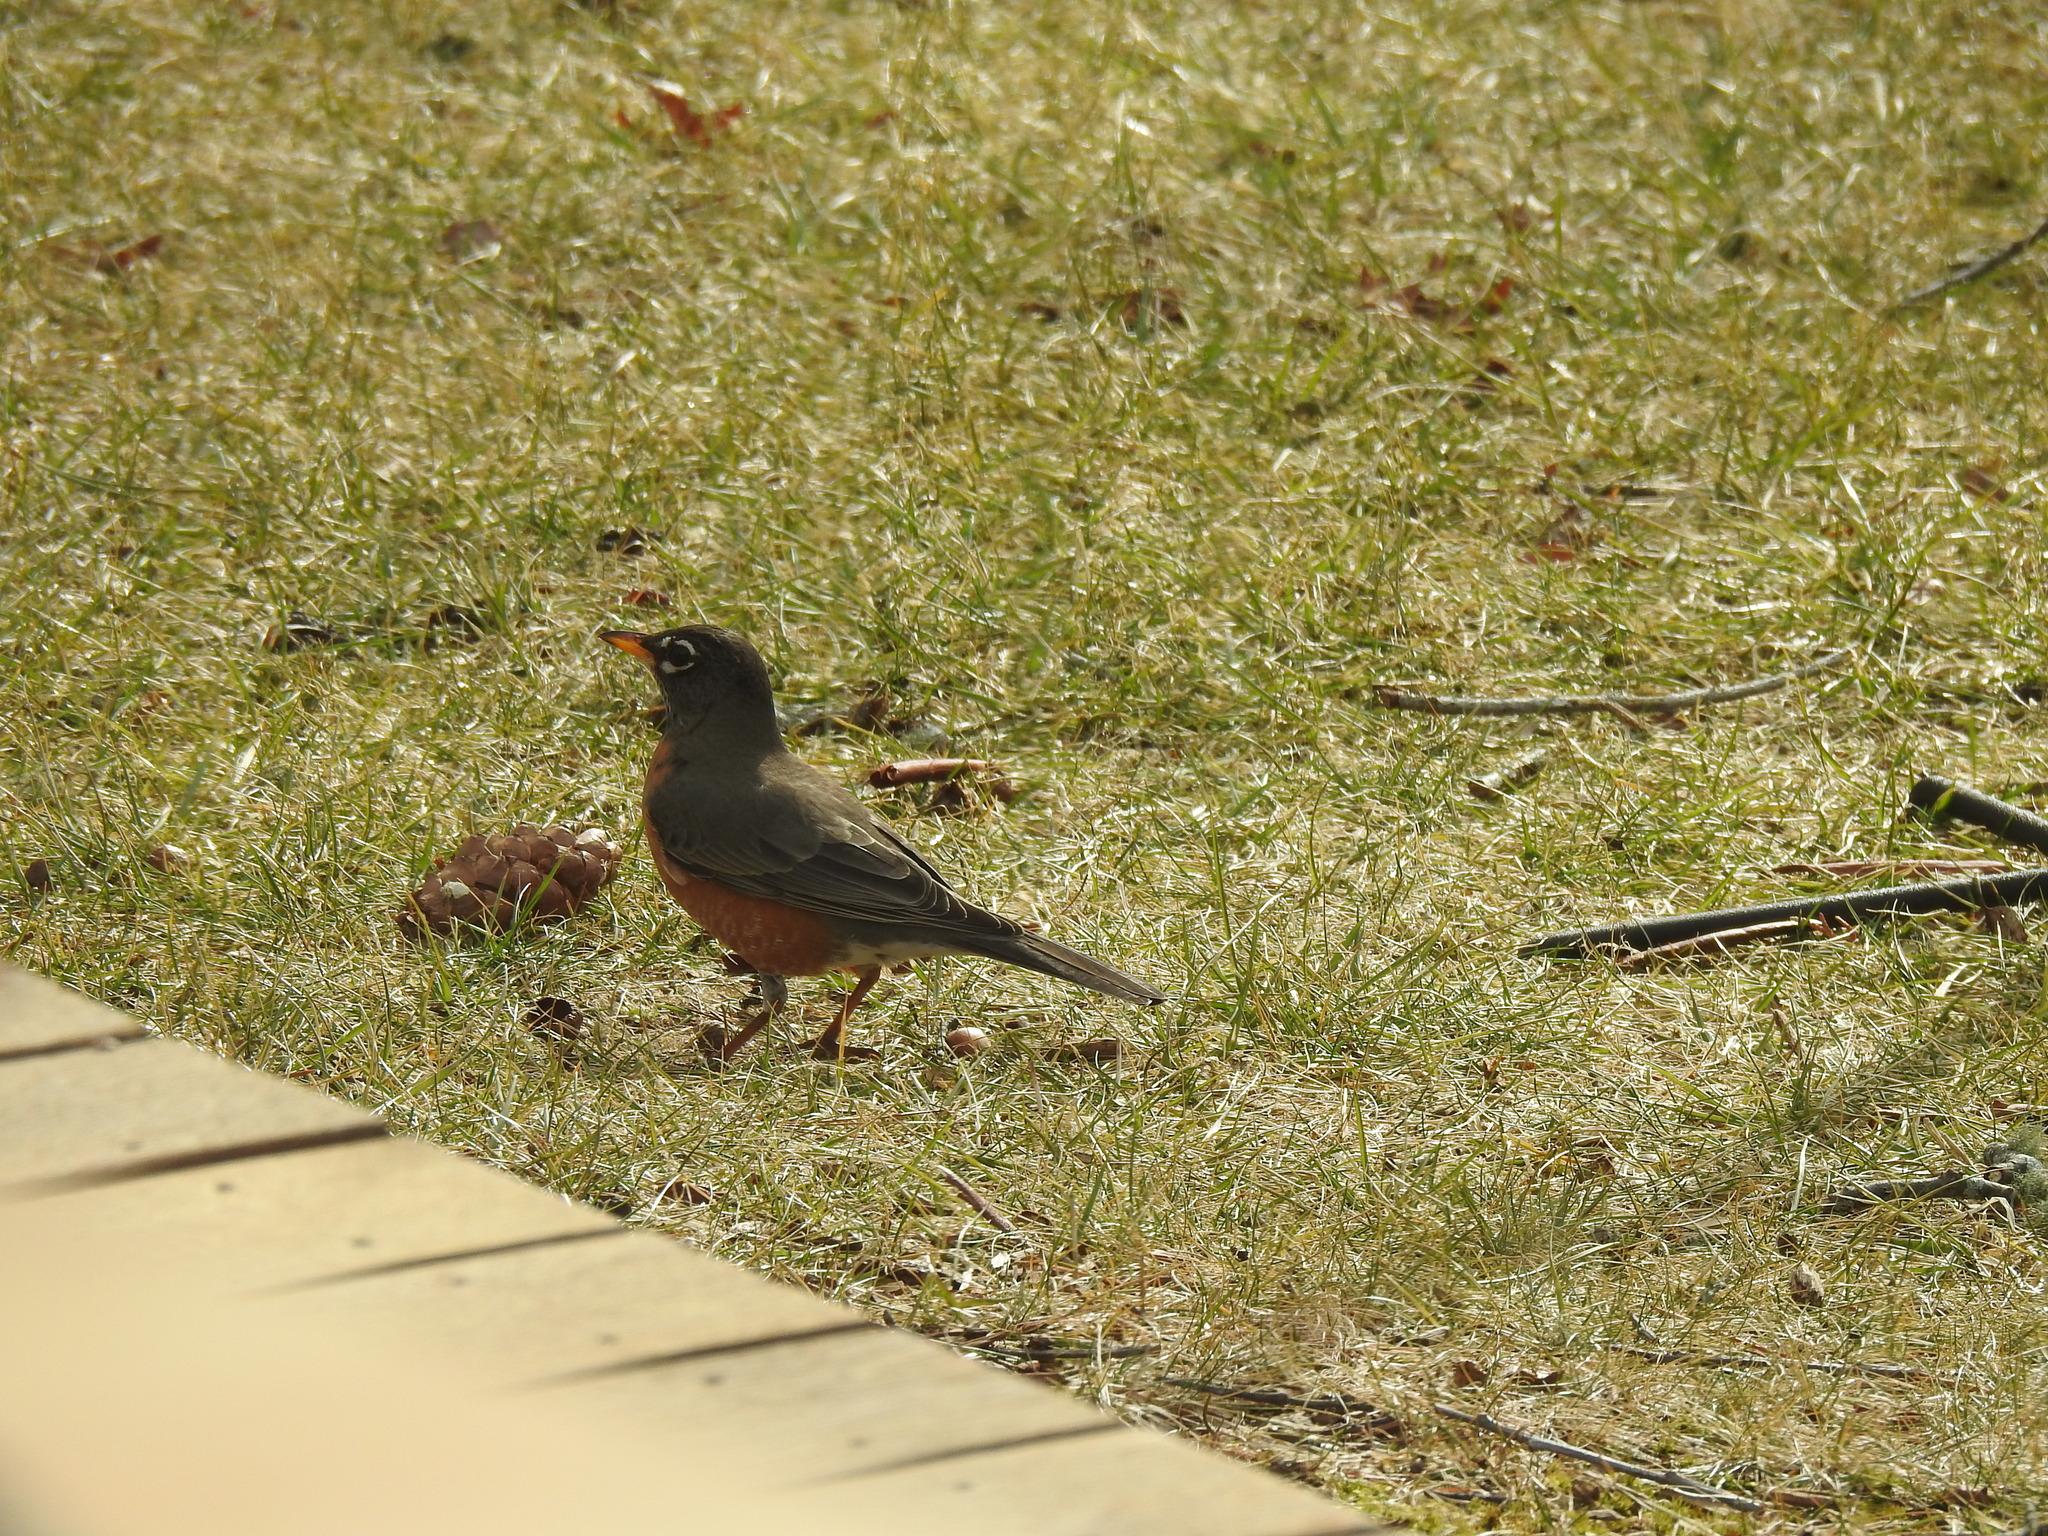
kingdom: Animalia
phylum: Chordata
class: Aves
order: Passeriformes
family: Turdidae
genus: Turdus
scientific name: Turdus migratorius
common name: American robin
